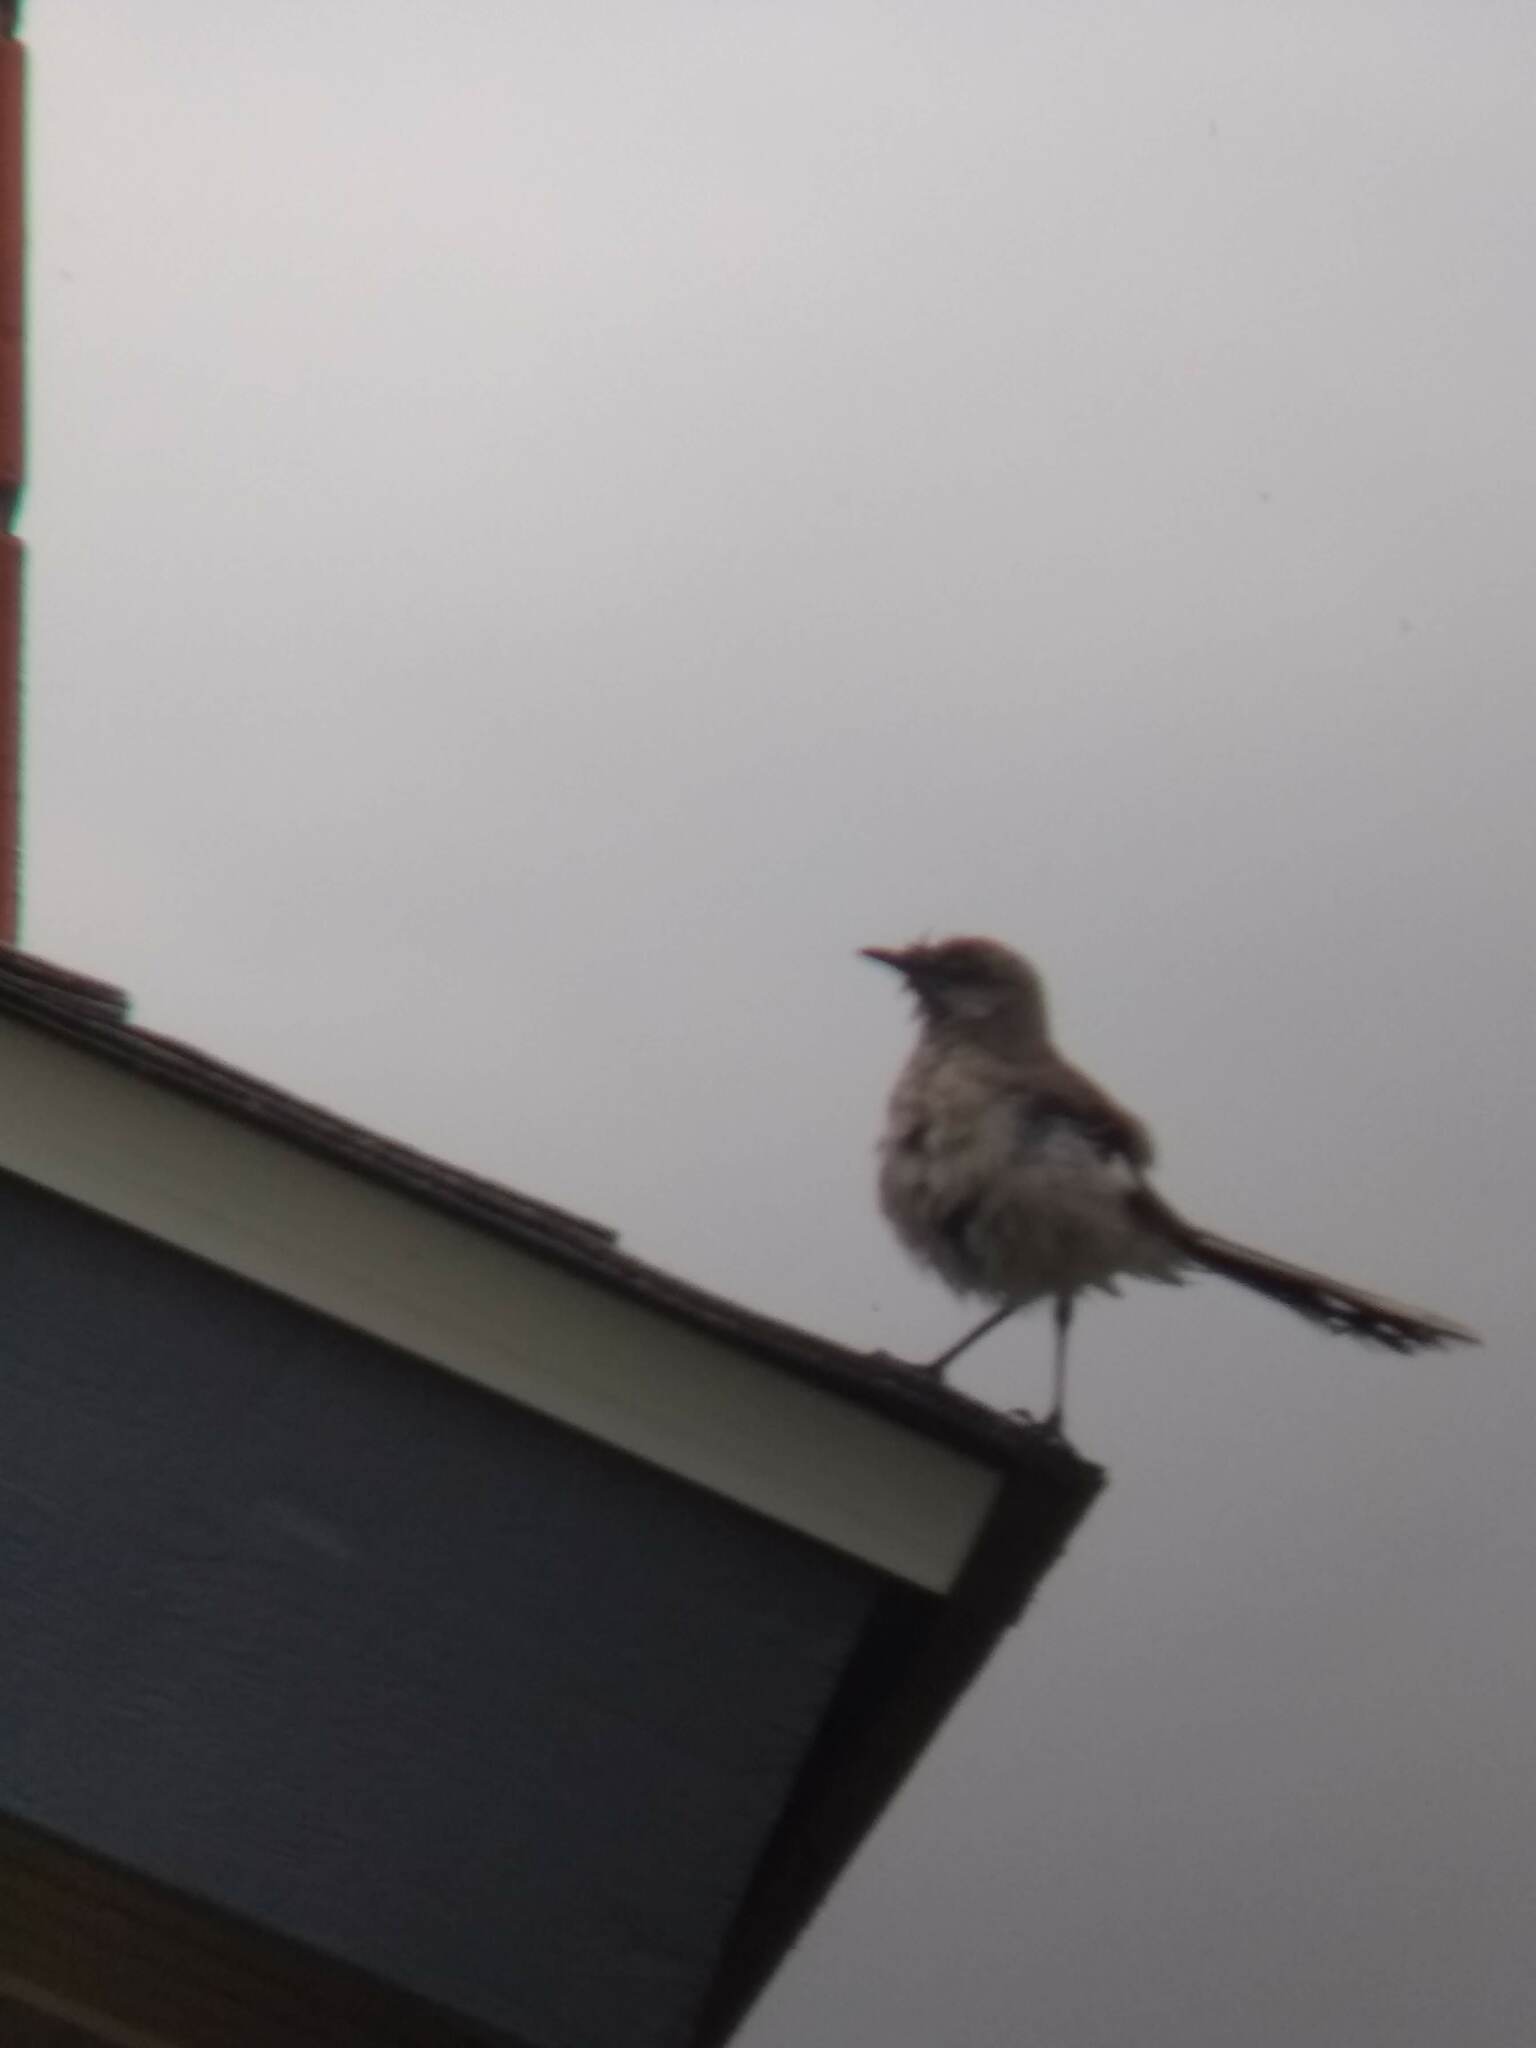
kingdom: Animalia
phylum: Chordata
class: Aves
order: Passeriformes
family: Mimidae
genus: Mimus
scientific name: Mimus polyglottos
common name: Northern mockingbird
